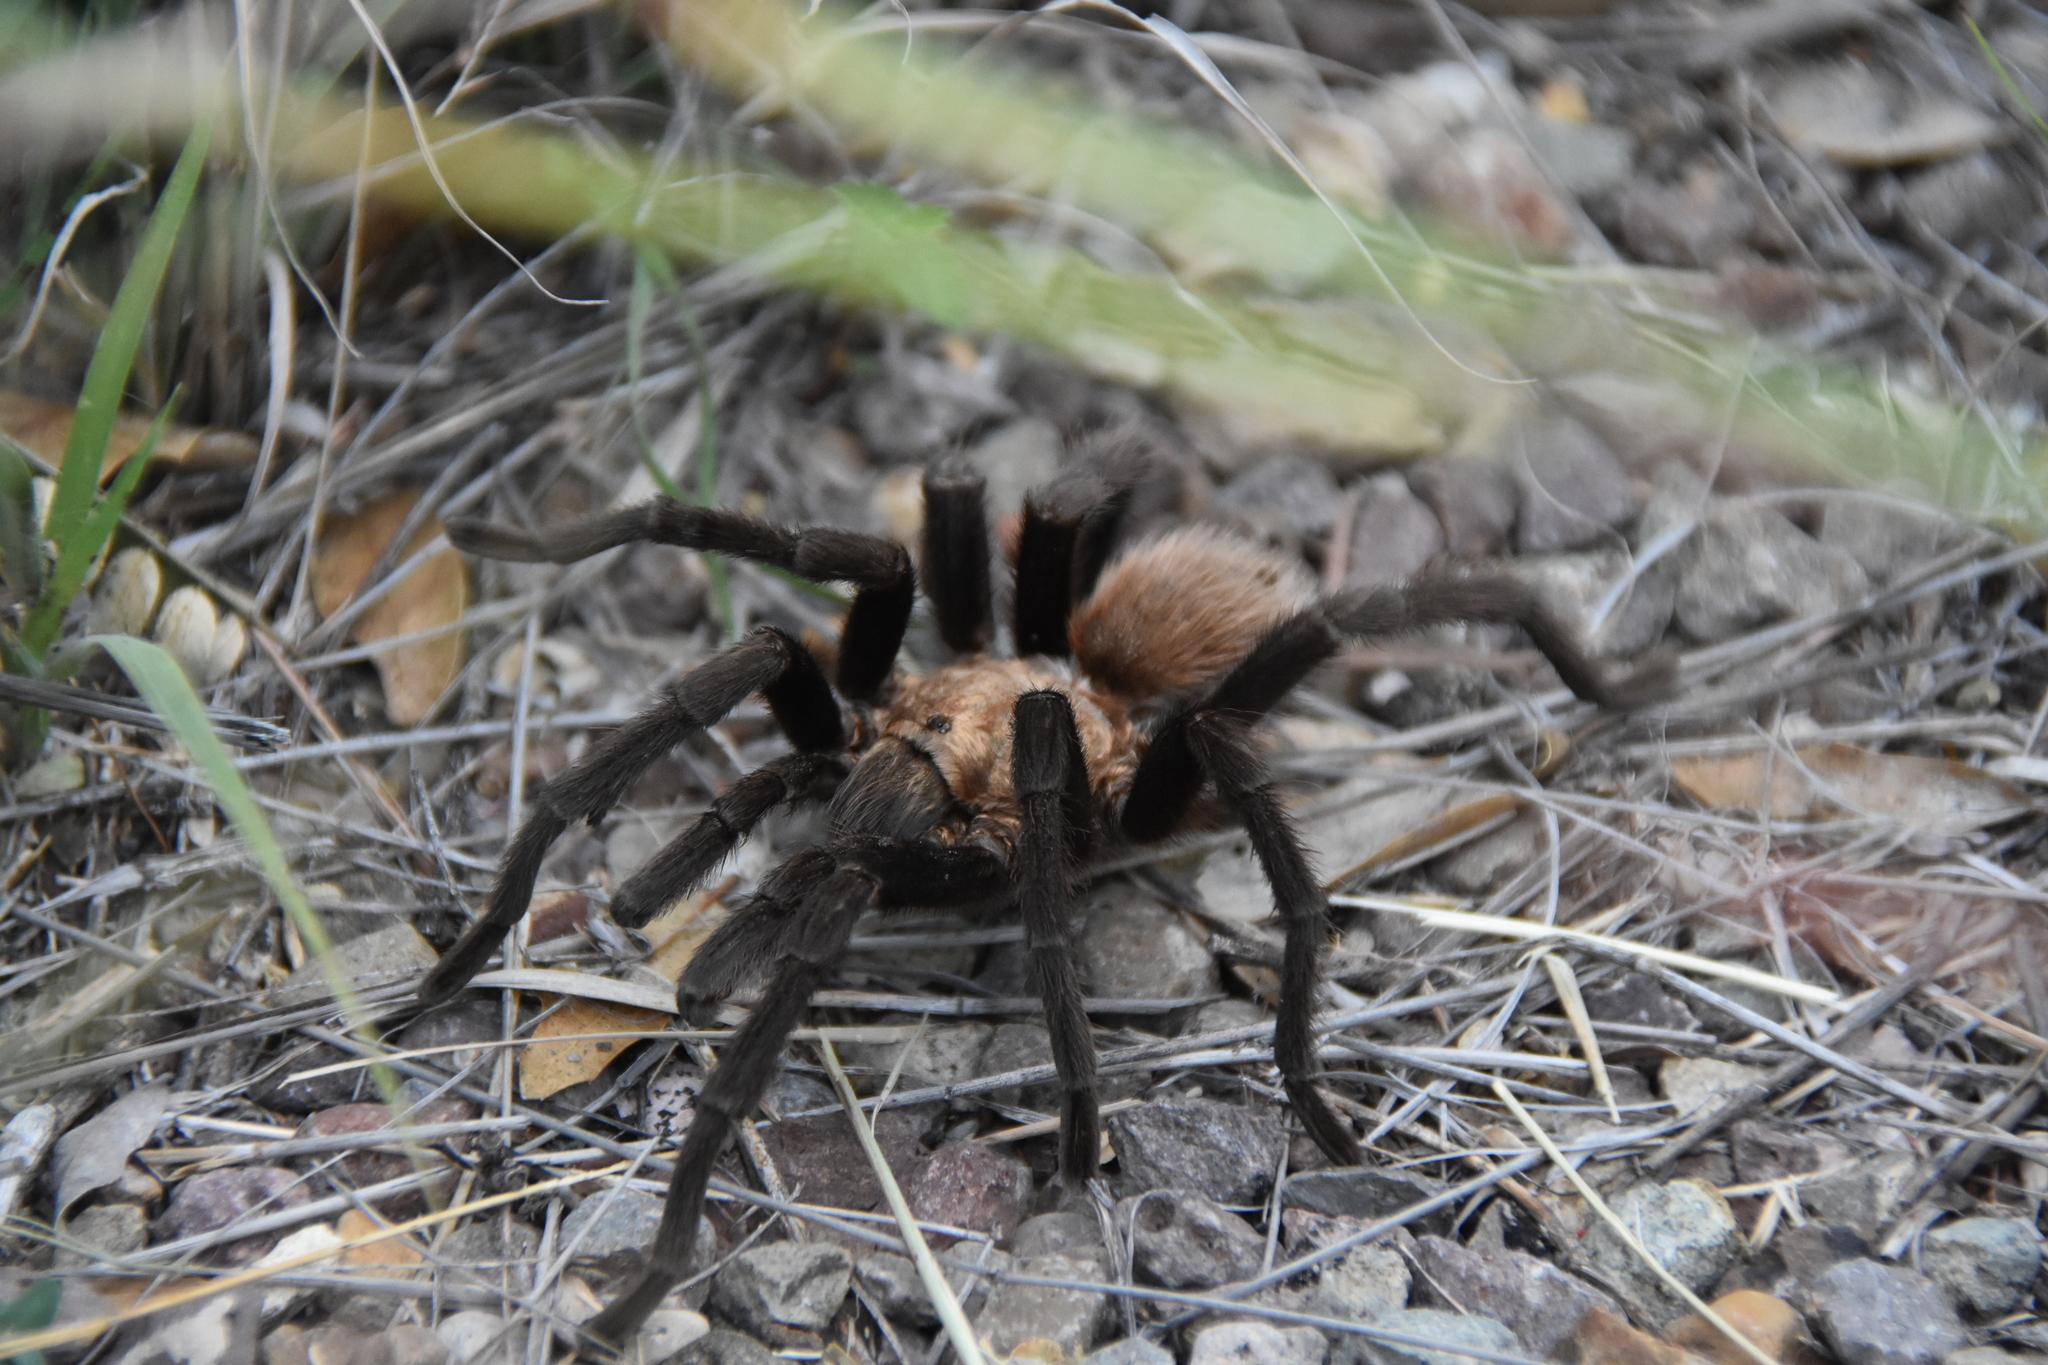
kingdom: Animalia
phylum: Arthropoda
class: Arachnida
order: Araneae
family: Theraphosidae
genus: Aphonopelma
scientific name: Aphonopelma hentzi
